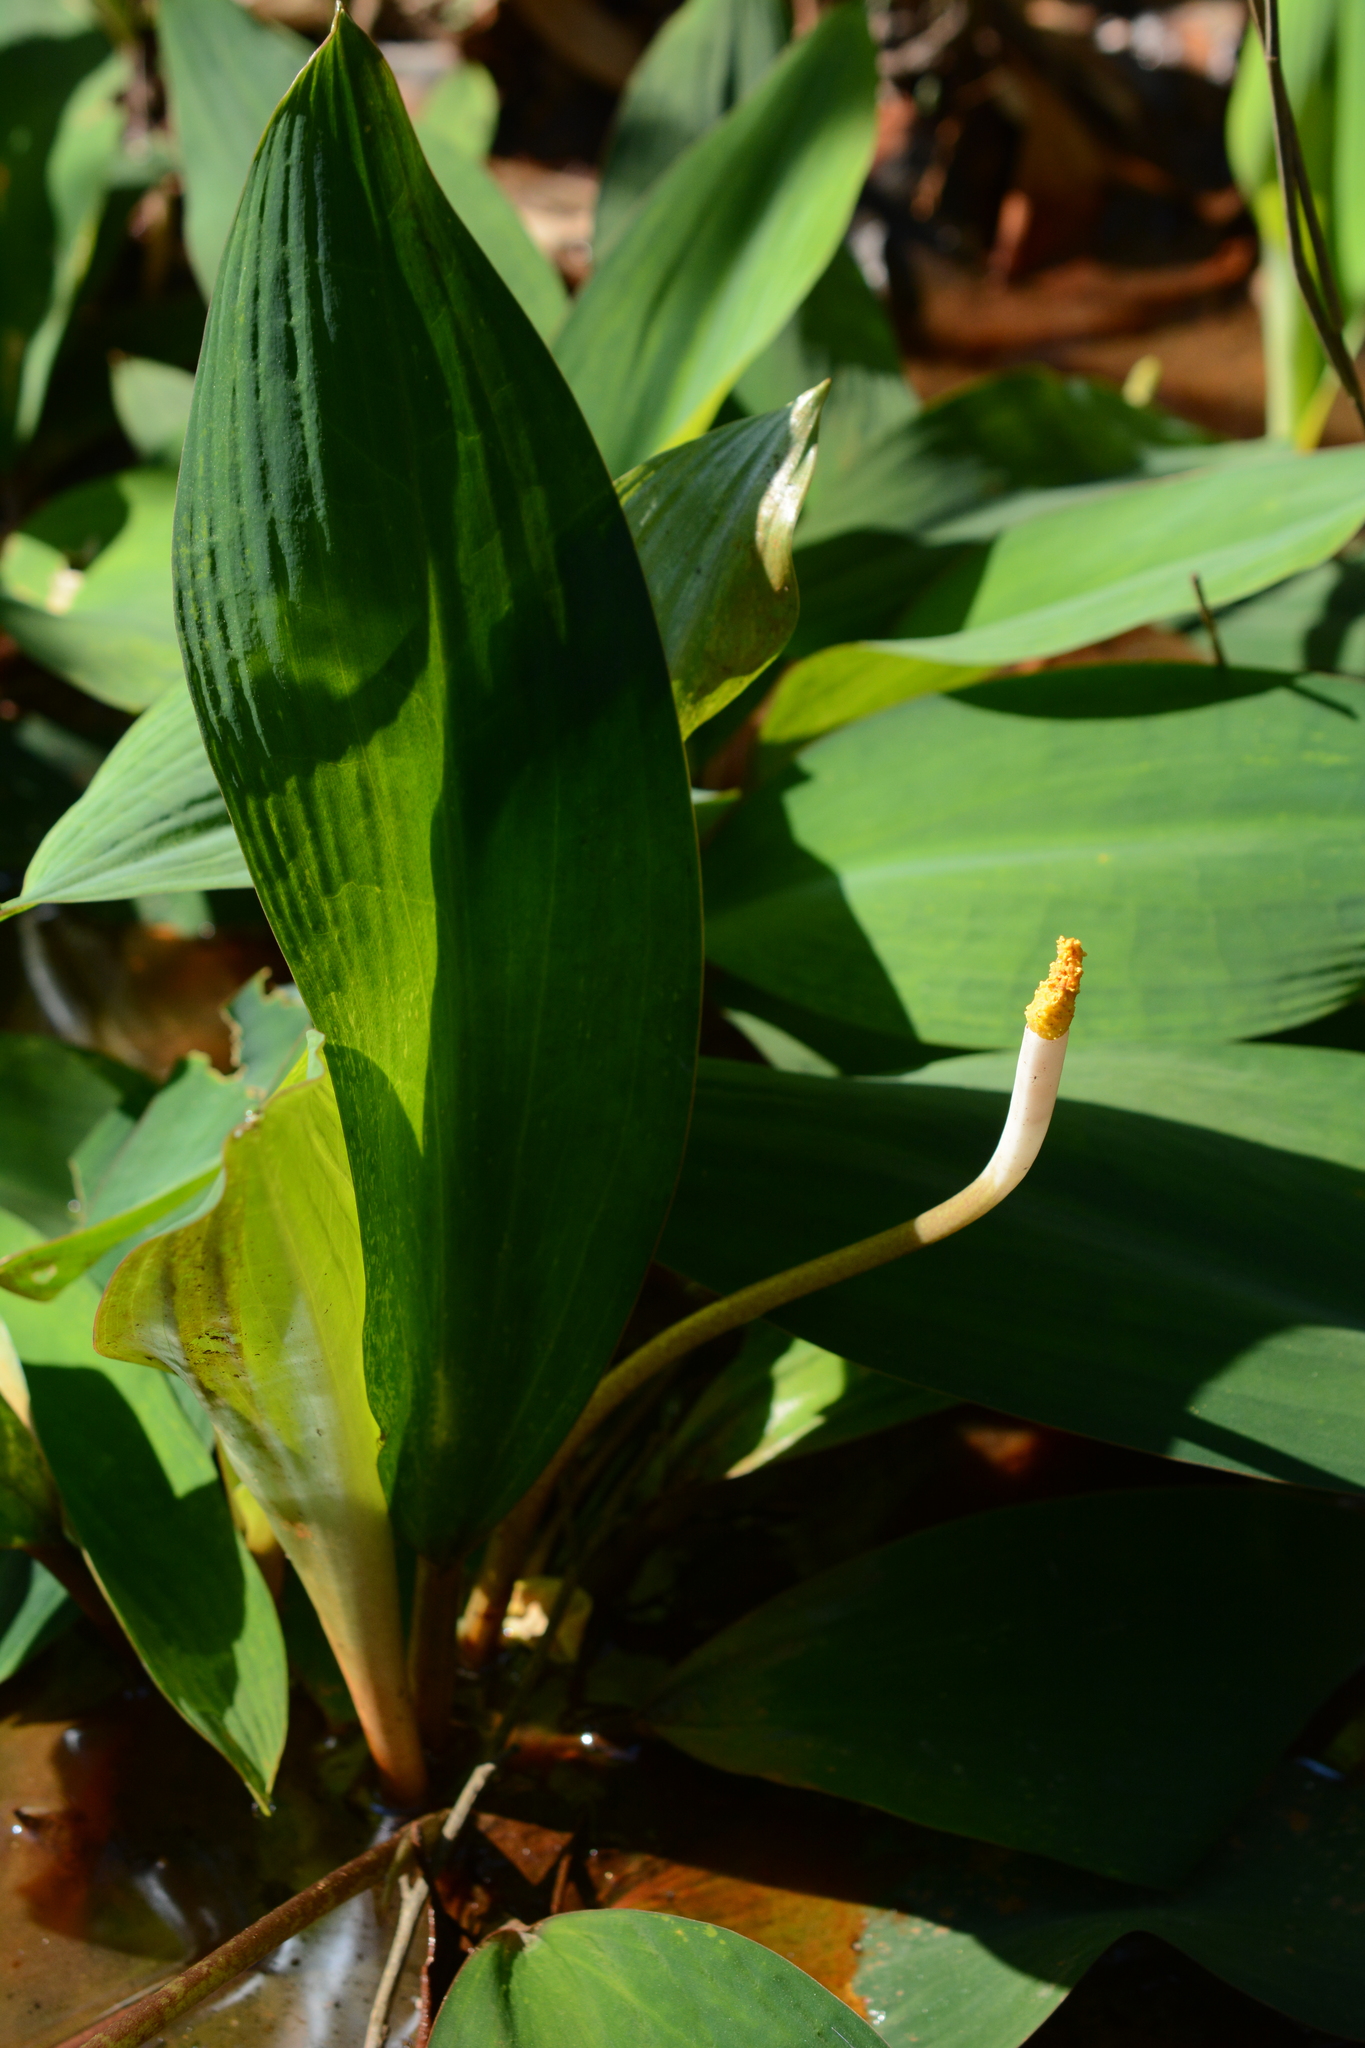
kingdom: Plantae
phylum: Tracheophyta
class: Liliopsida
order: Alismatales
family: Araceae
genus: Orontium
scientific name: Orontium aquaticum
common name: Golden-club
